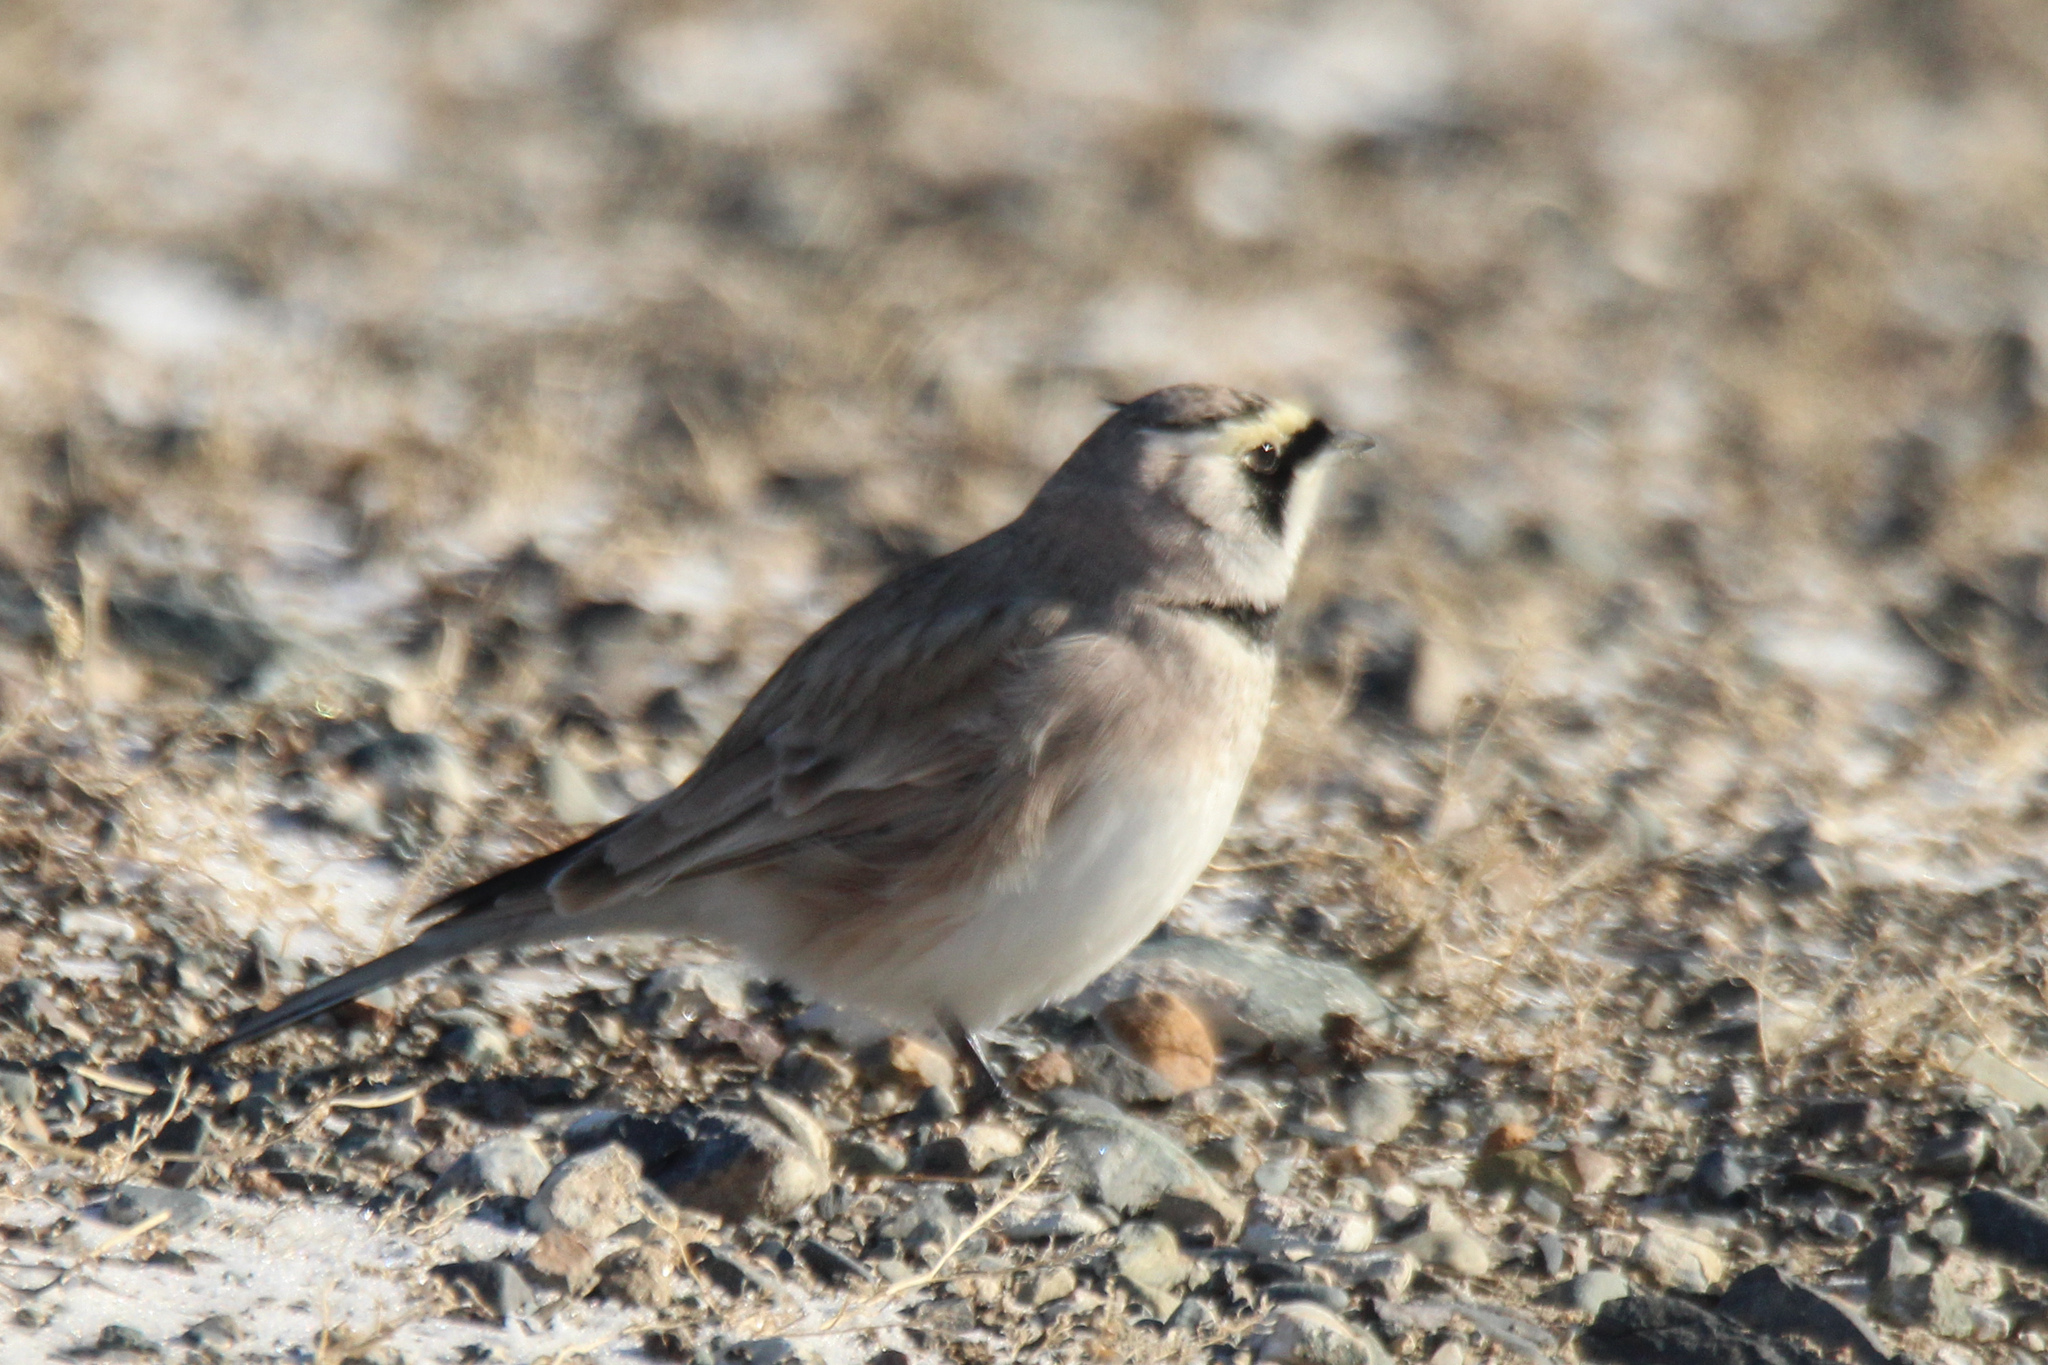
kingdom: Animalia
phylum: Chordata
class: Aves
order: Passeriformes
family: Alaudidae
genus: Eremophila
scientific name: Eremophila alpestris
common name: Horned lark
